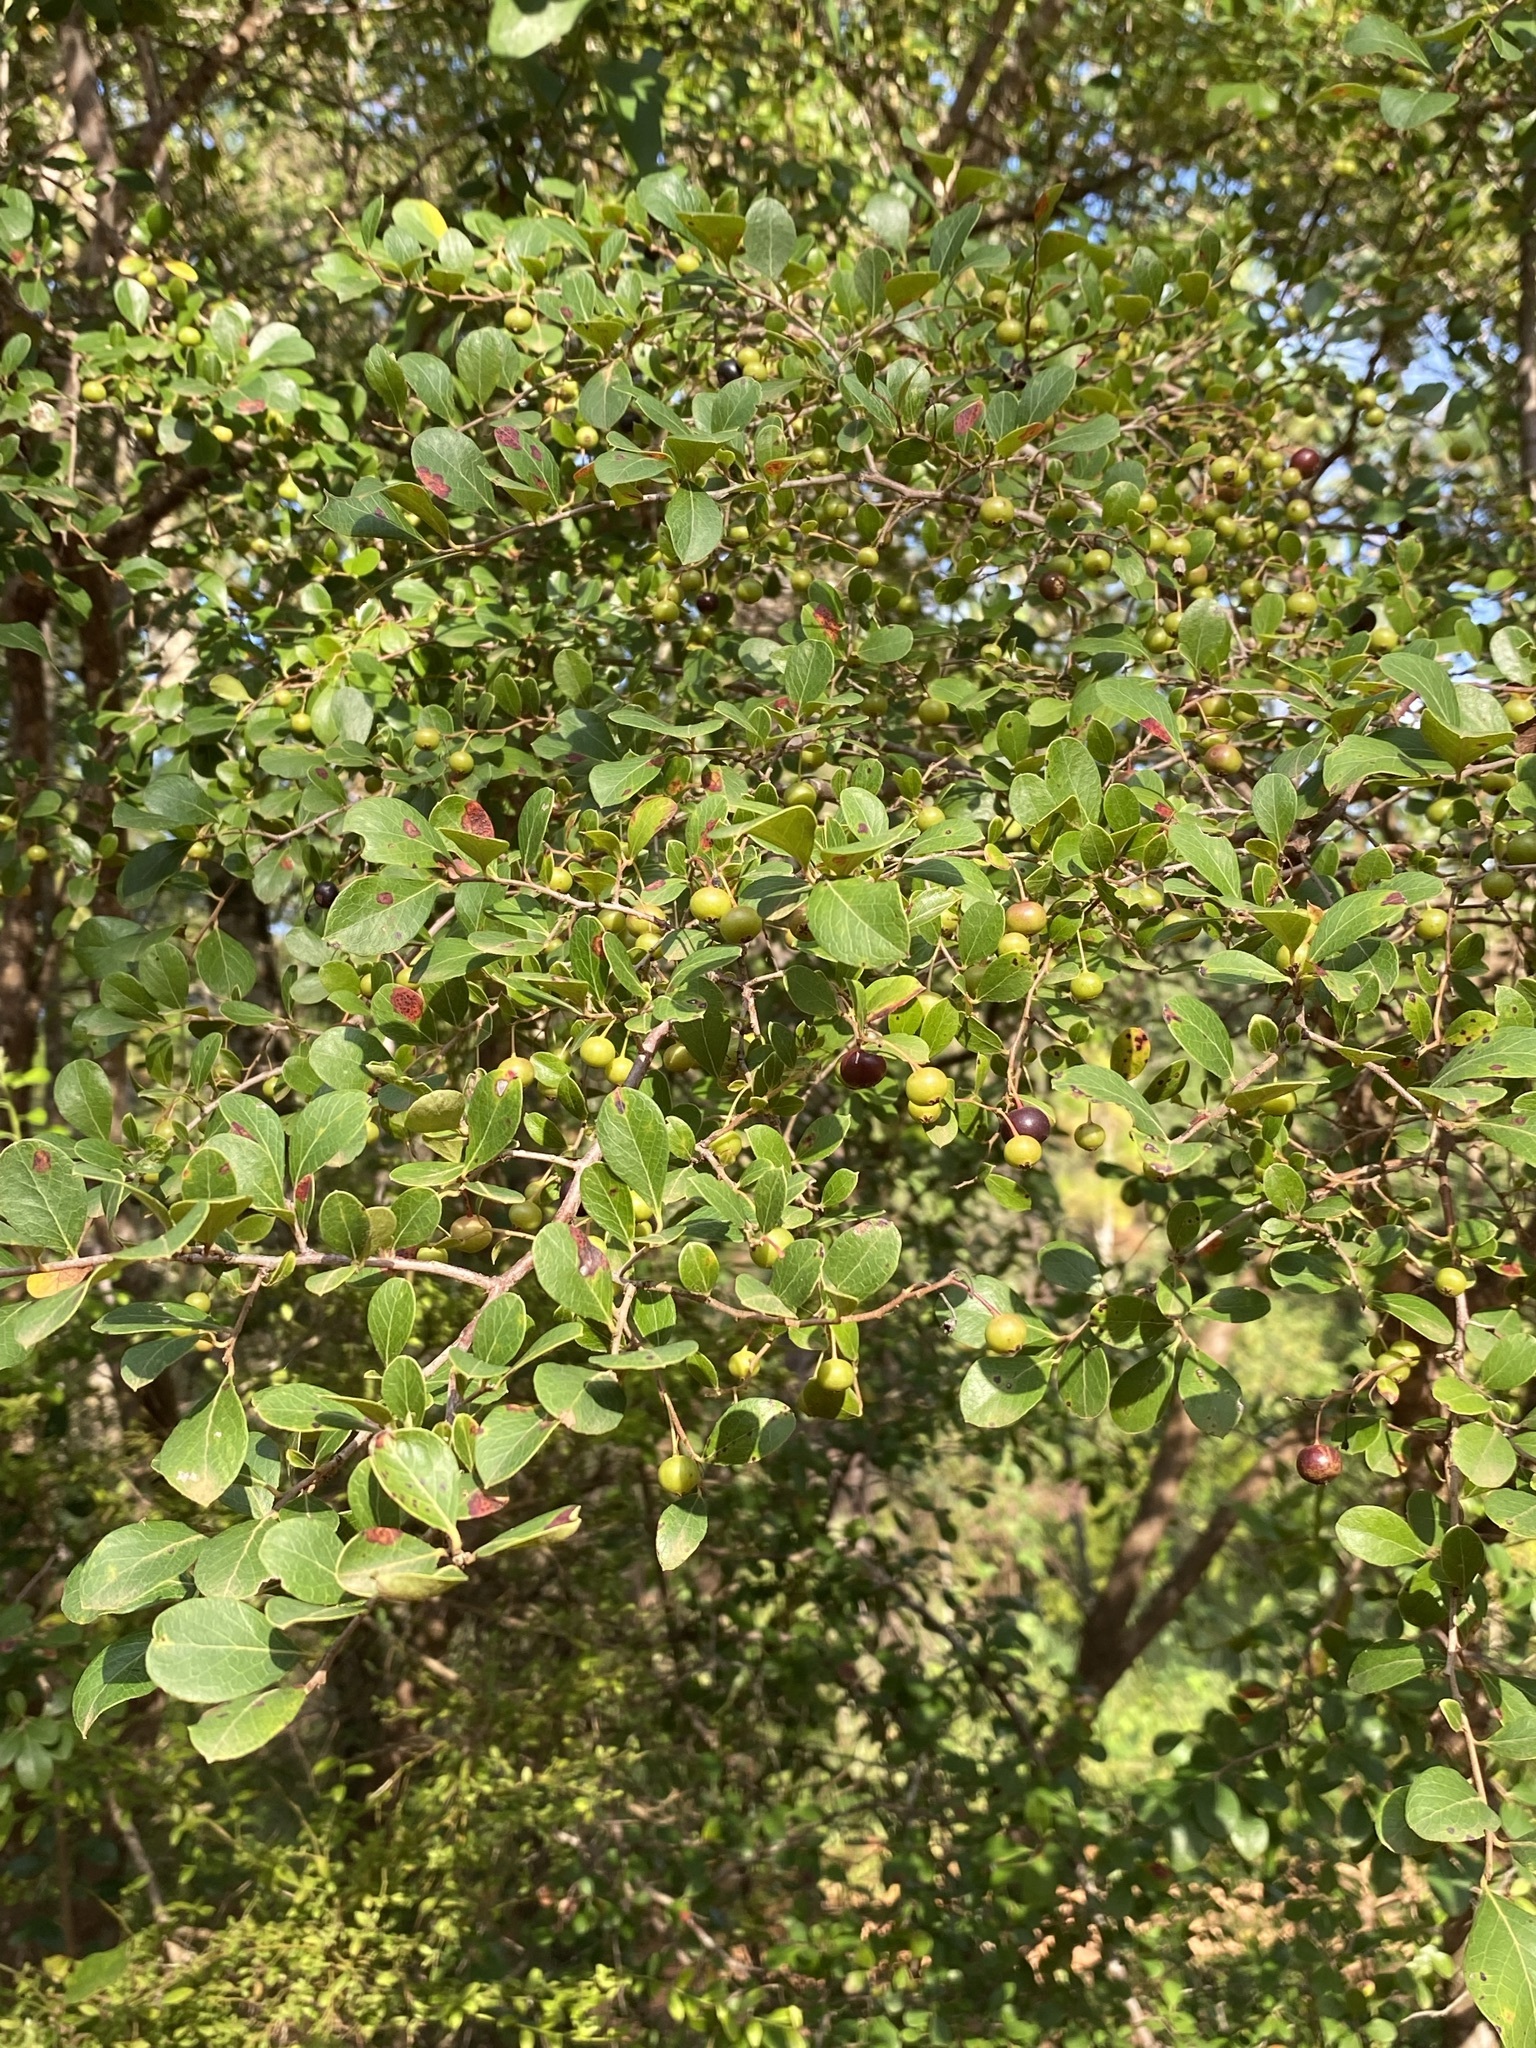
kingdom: Plantae
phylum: Tracheophyta
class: Magnoliopsida
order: Ericales
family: Ericaceae
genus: Vaccinium
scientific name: Vaccinium arboreum
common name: Farkleberry
